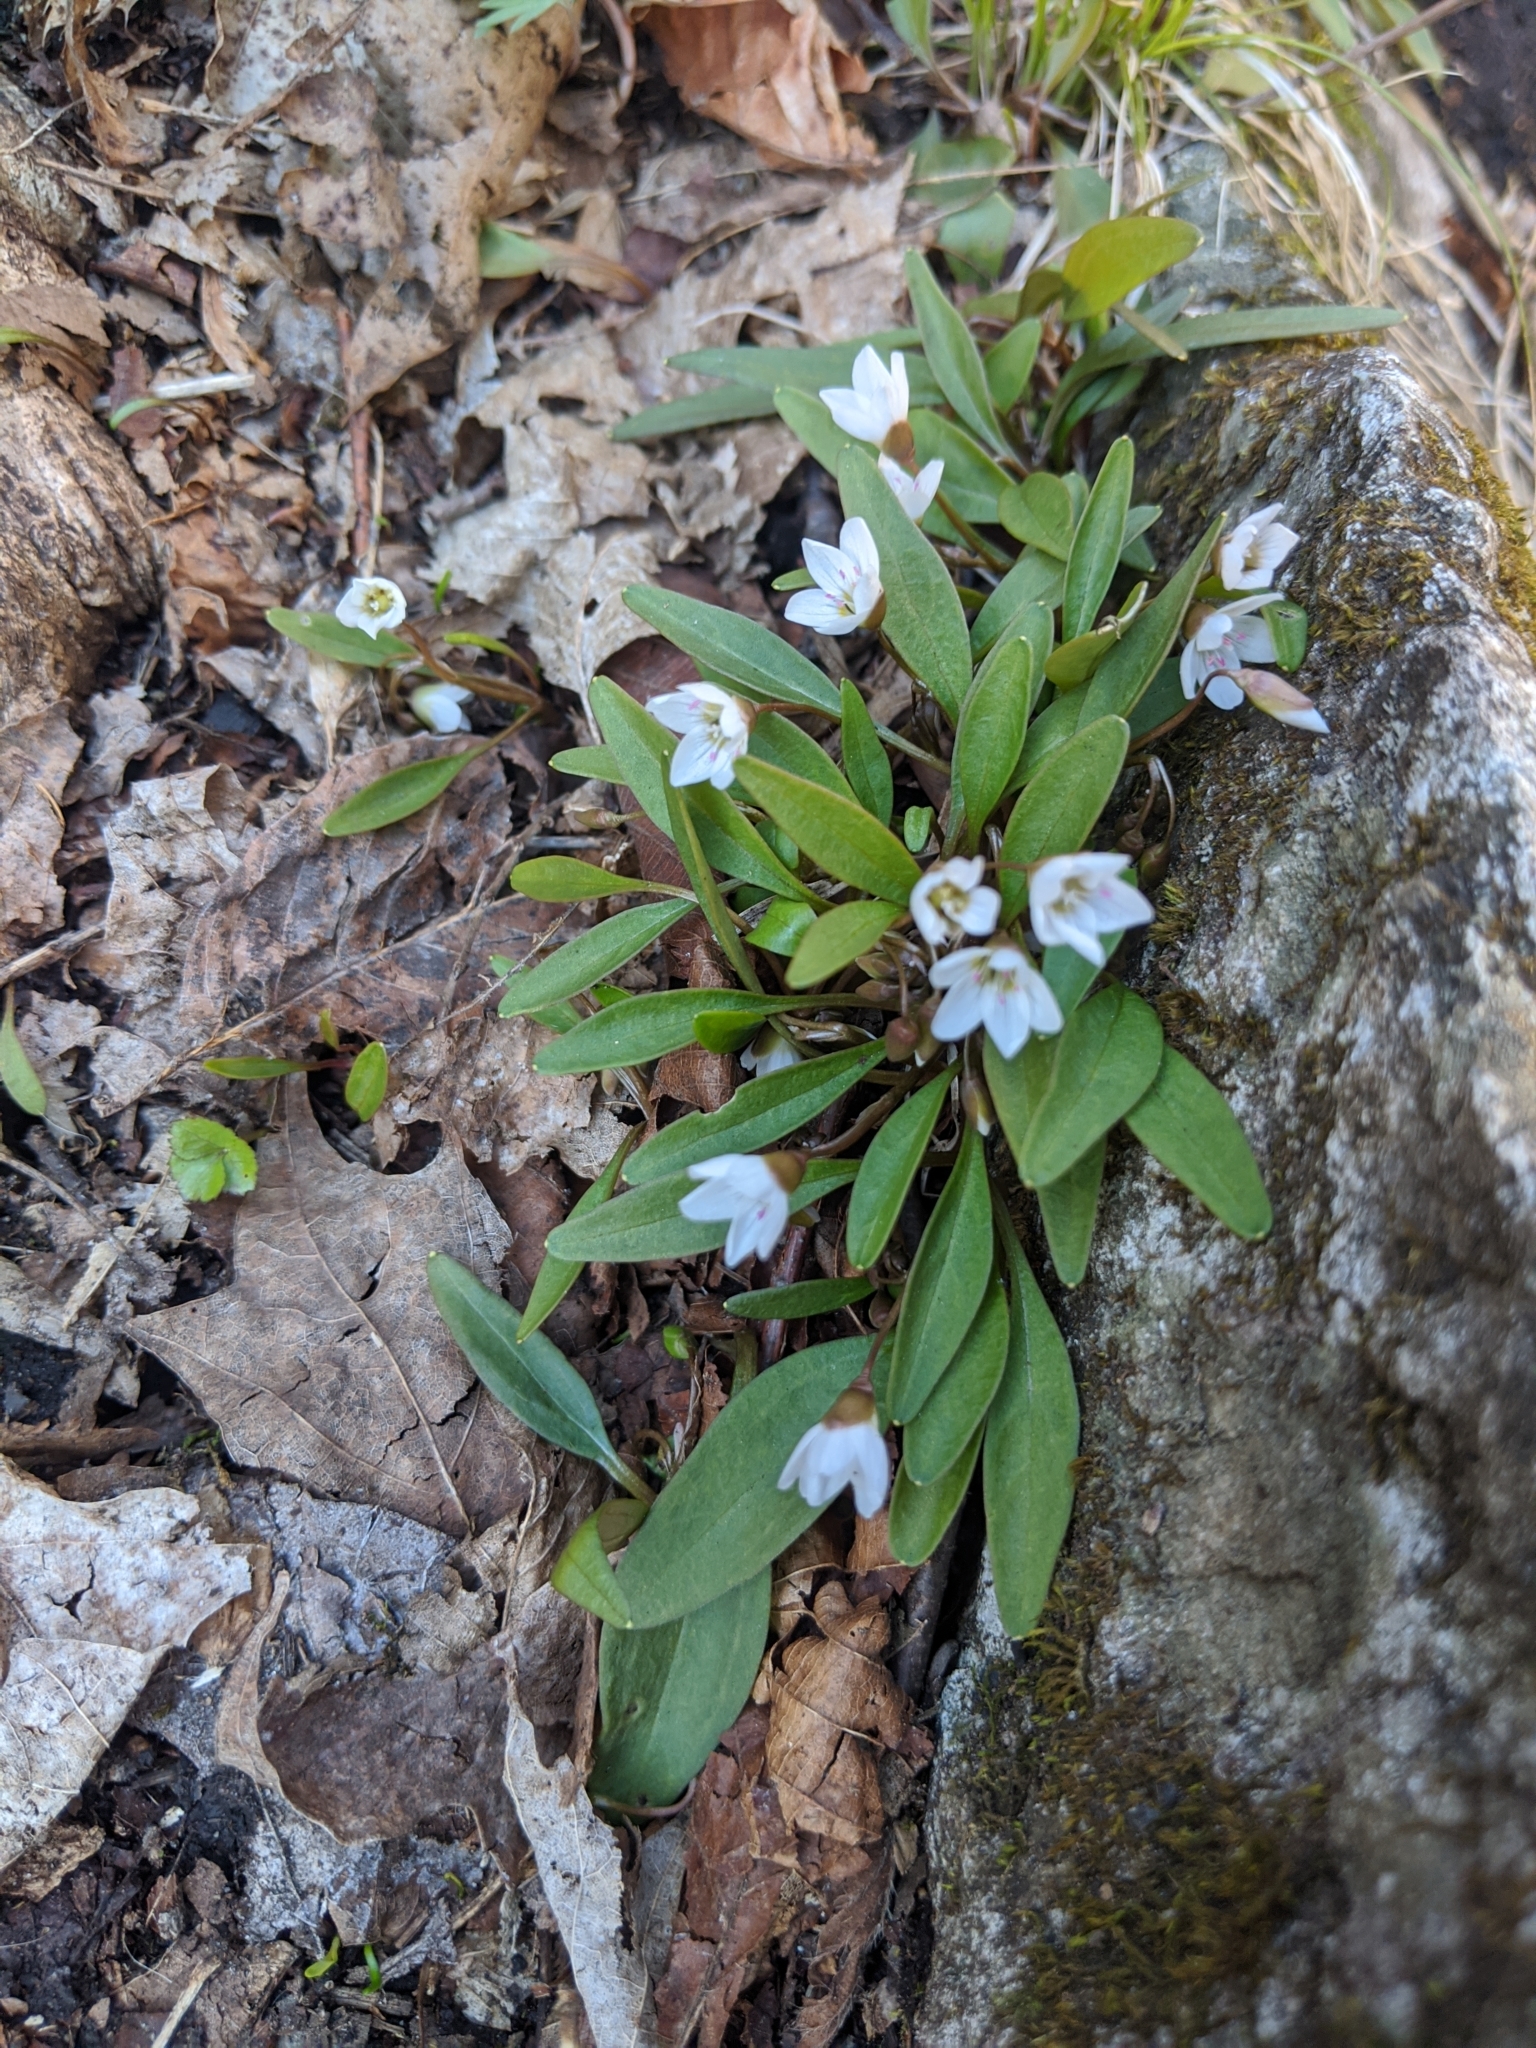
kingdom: Plantae
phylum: Tracheophyta
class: Magnoliopsida
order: Caryophyllales
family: Montiaceae
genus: Claytonia
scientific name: Claytonia caroliniana
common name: Carolina spring beauty
